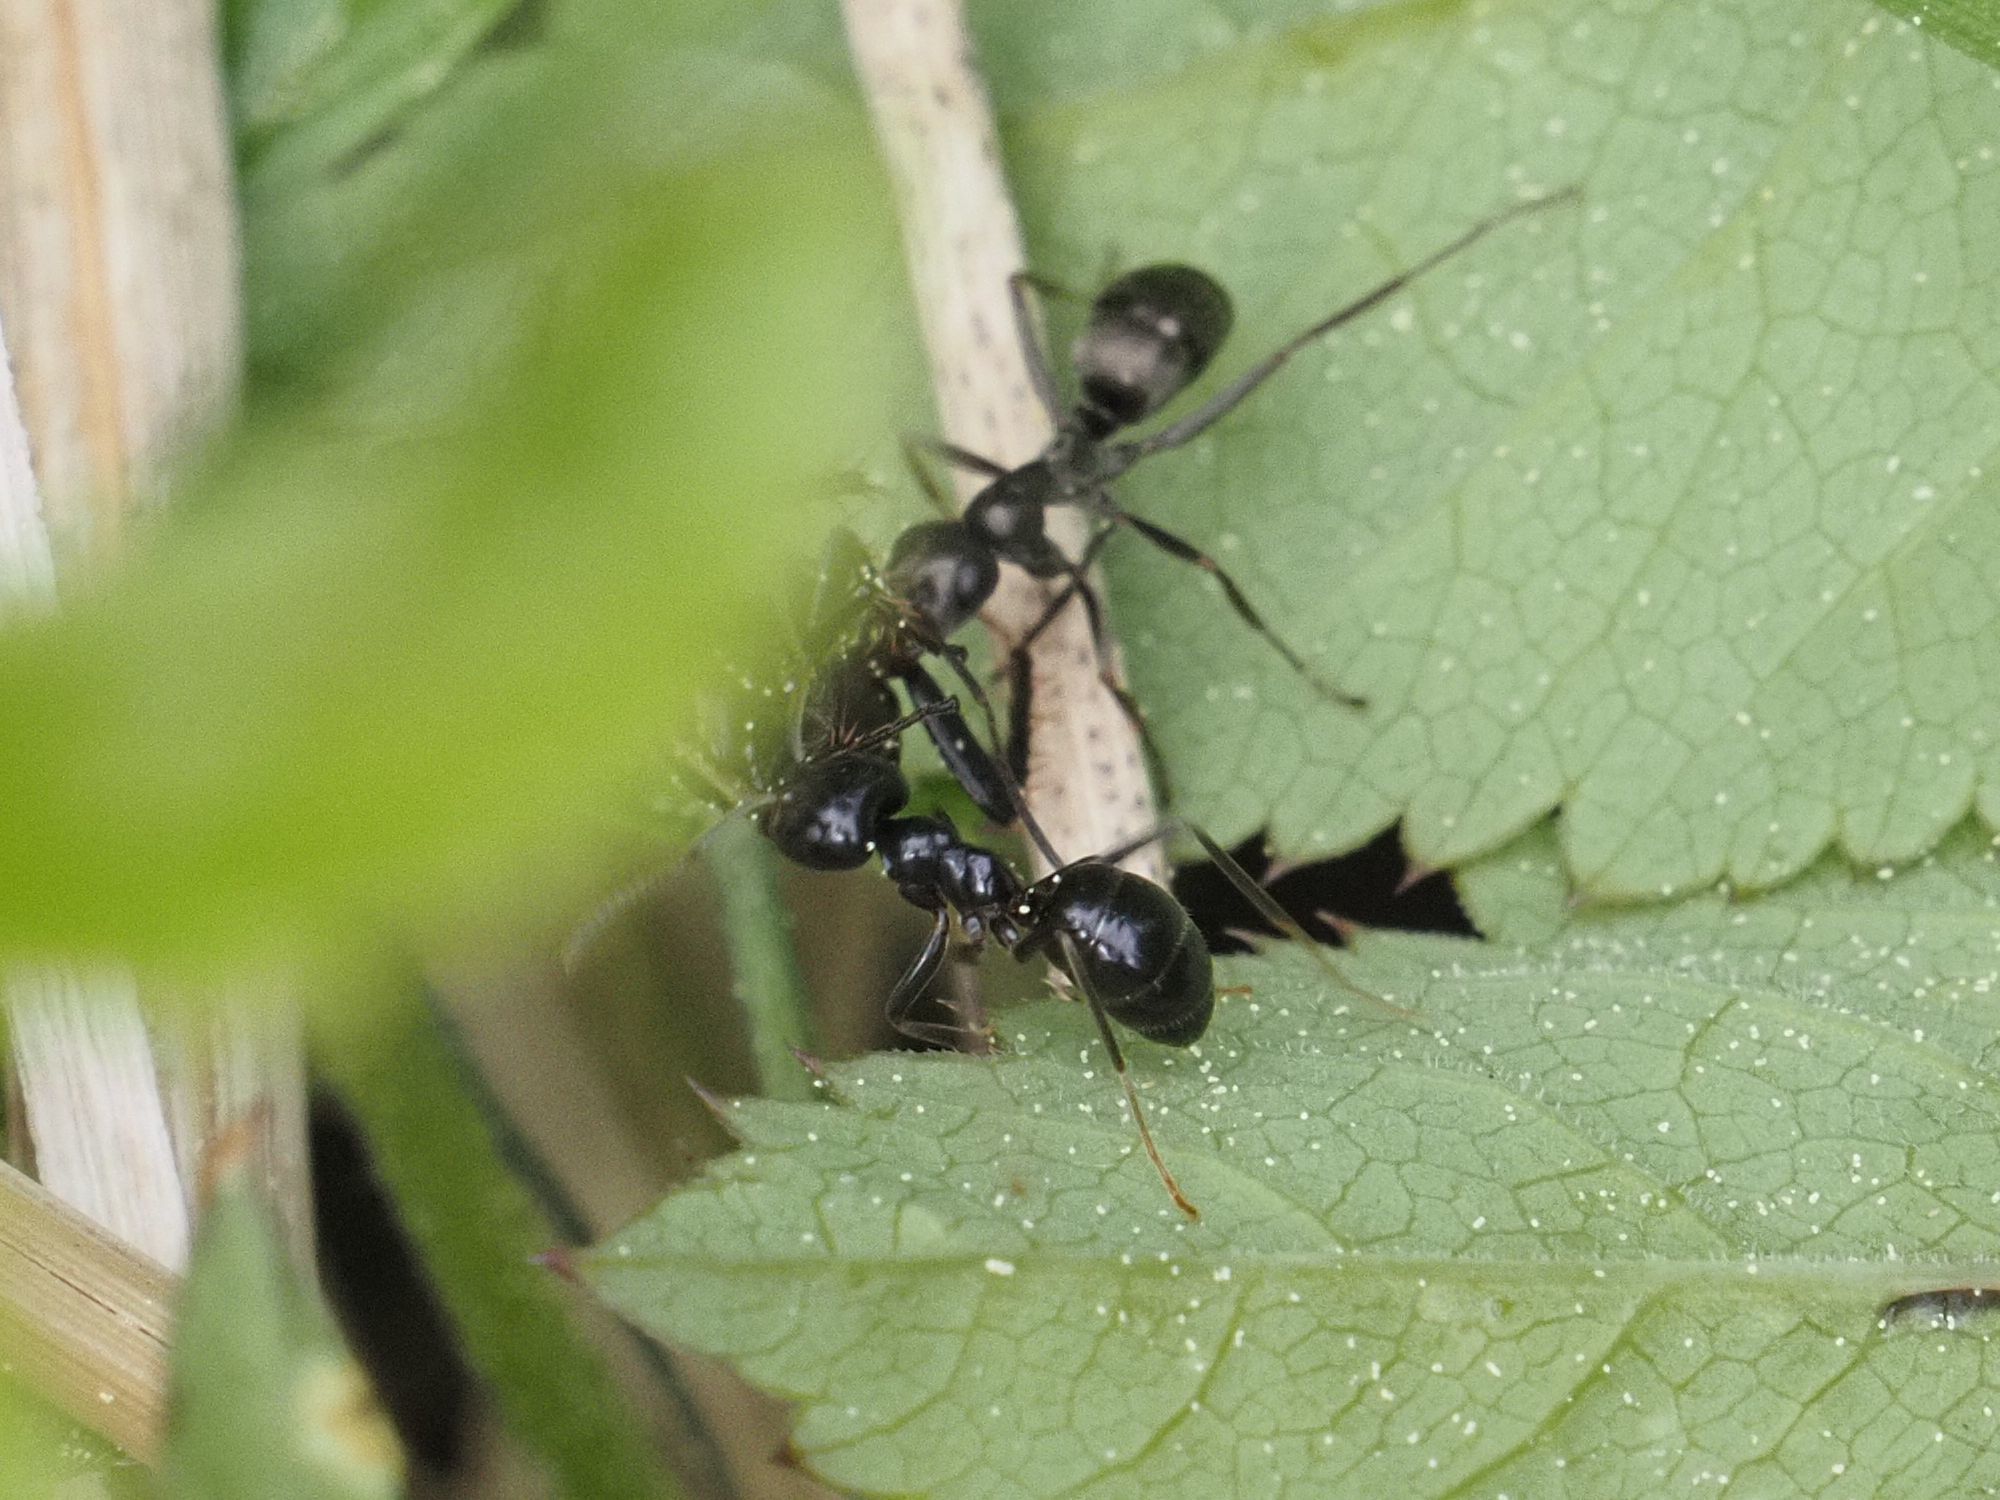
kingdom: Animalia
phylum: Arthropoda
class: Insecta
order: Hymenoptera
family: Formicidae
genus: Lasius
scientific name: Lasius fuliginosus
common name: Jet ant
